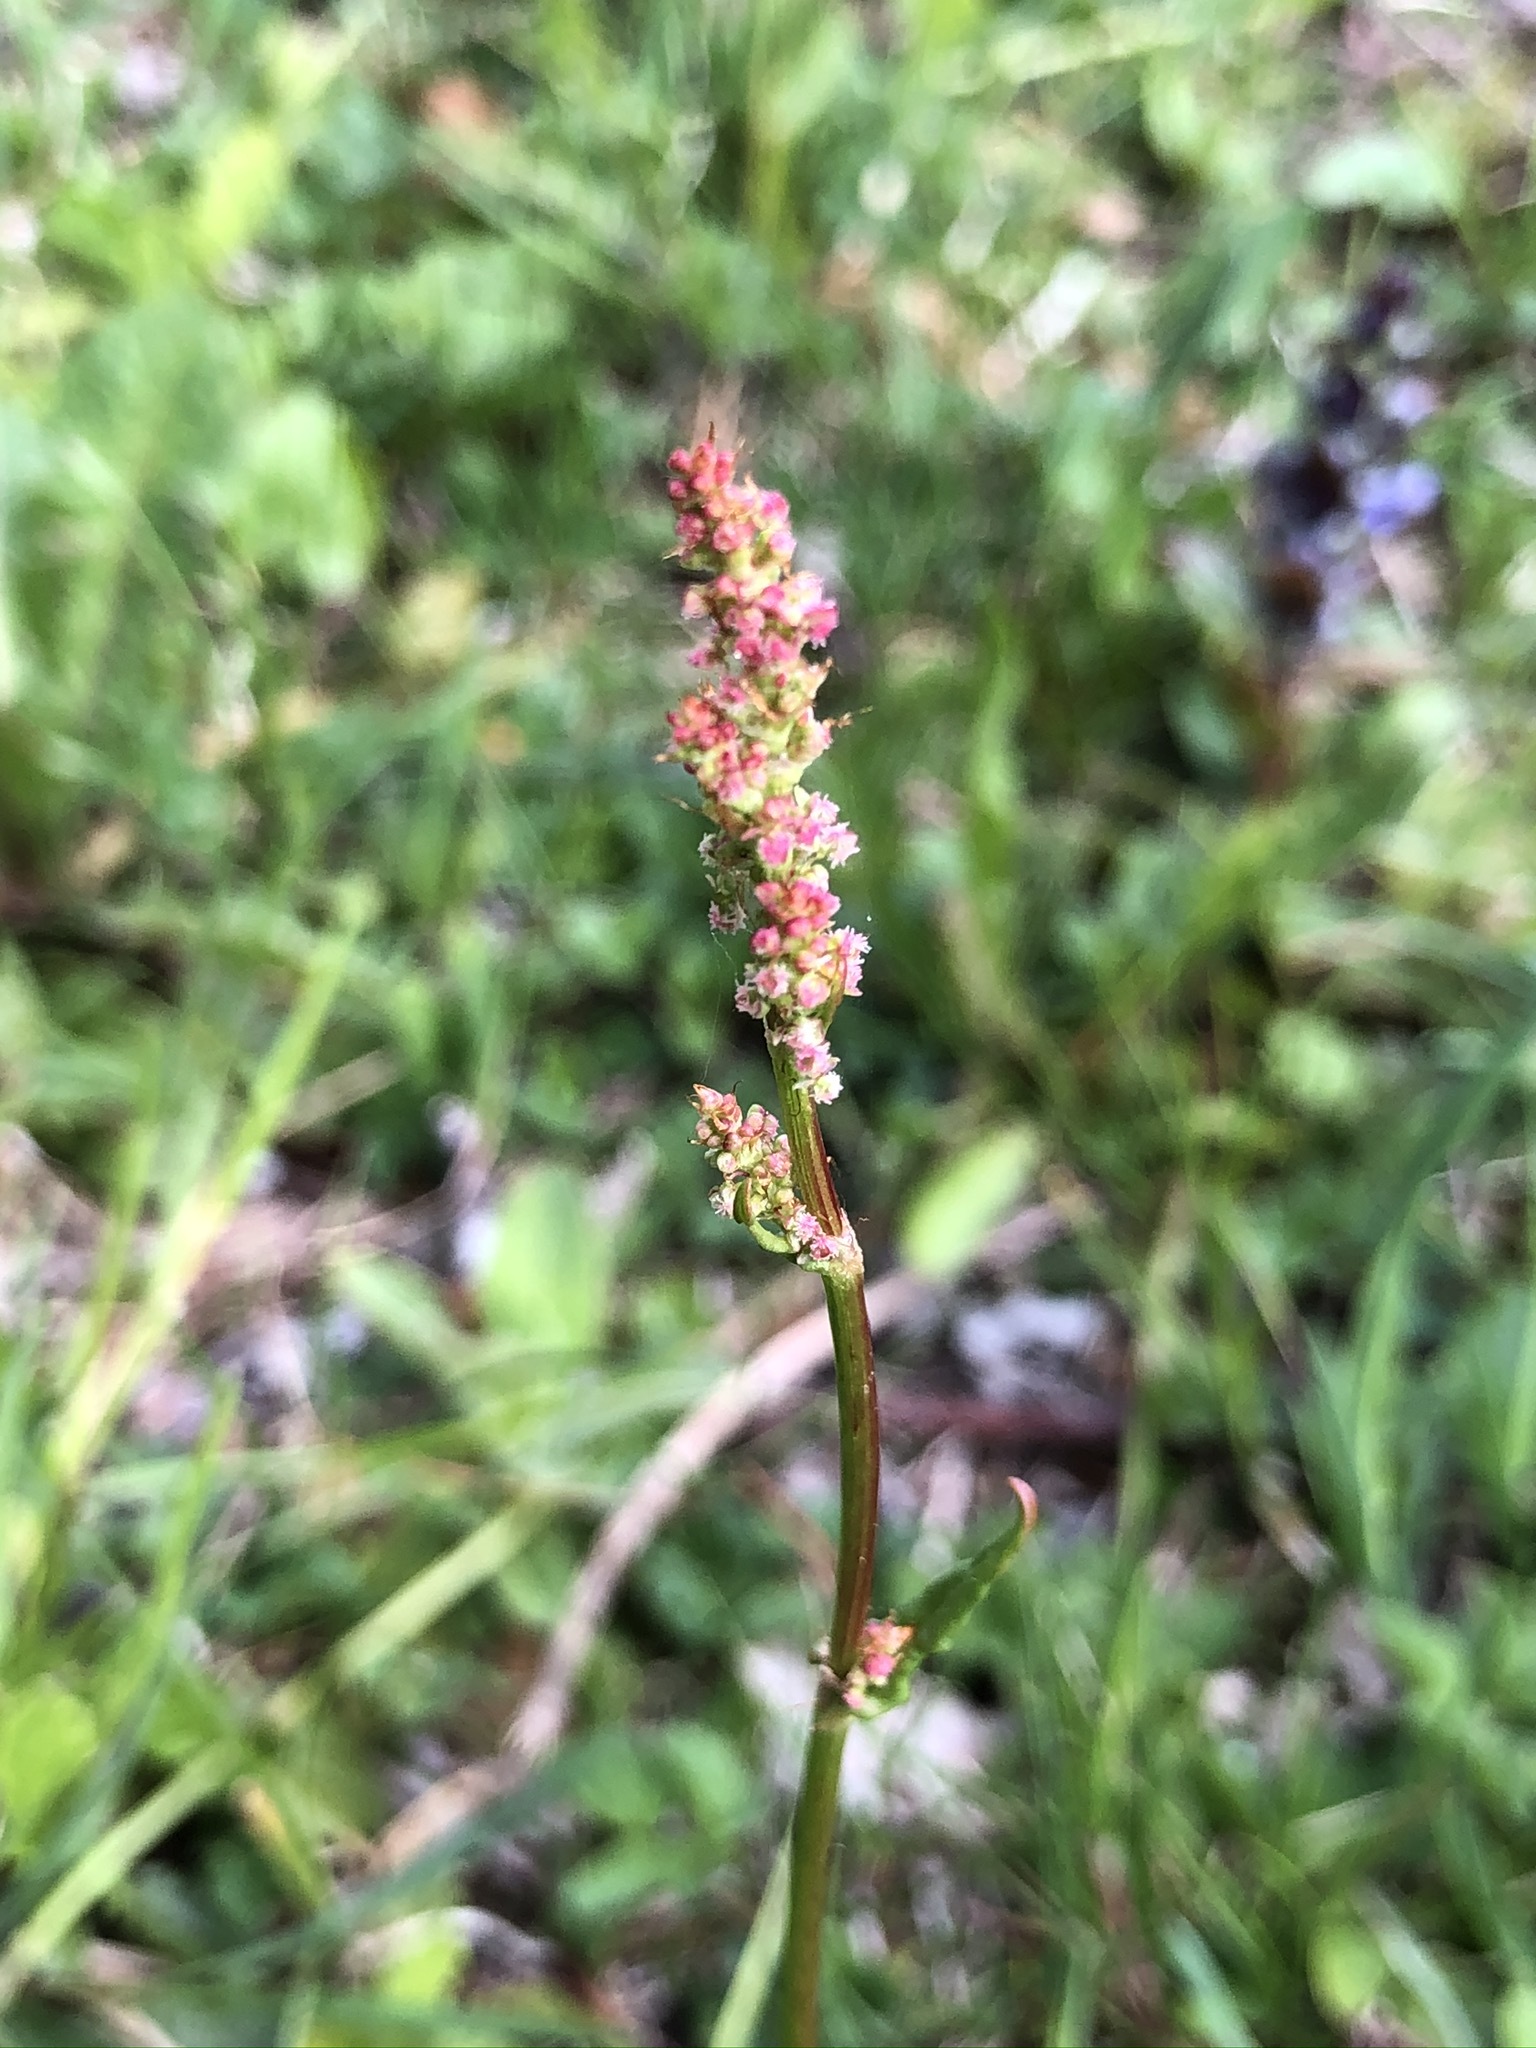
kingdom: Plantae
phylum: Tracheophyta
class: Magnoliopsida
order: Caryophyllales
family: Polygonaceae
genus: Rumex
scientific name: Rumex acetosa
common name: Garden sorrel
